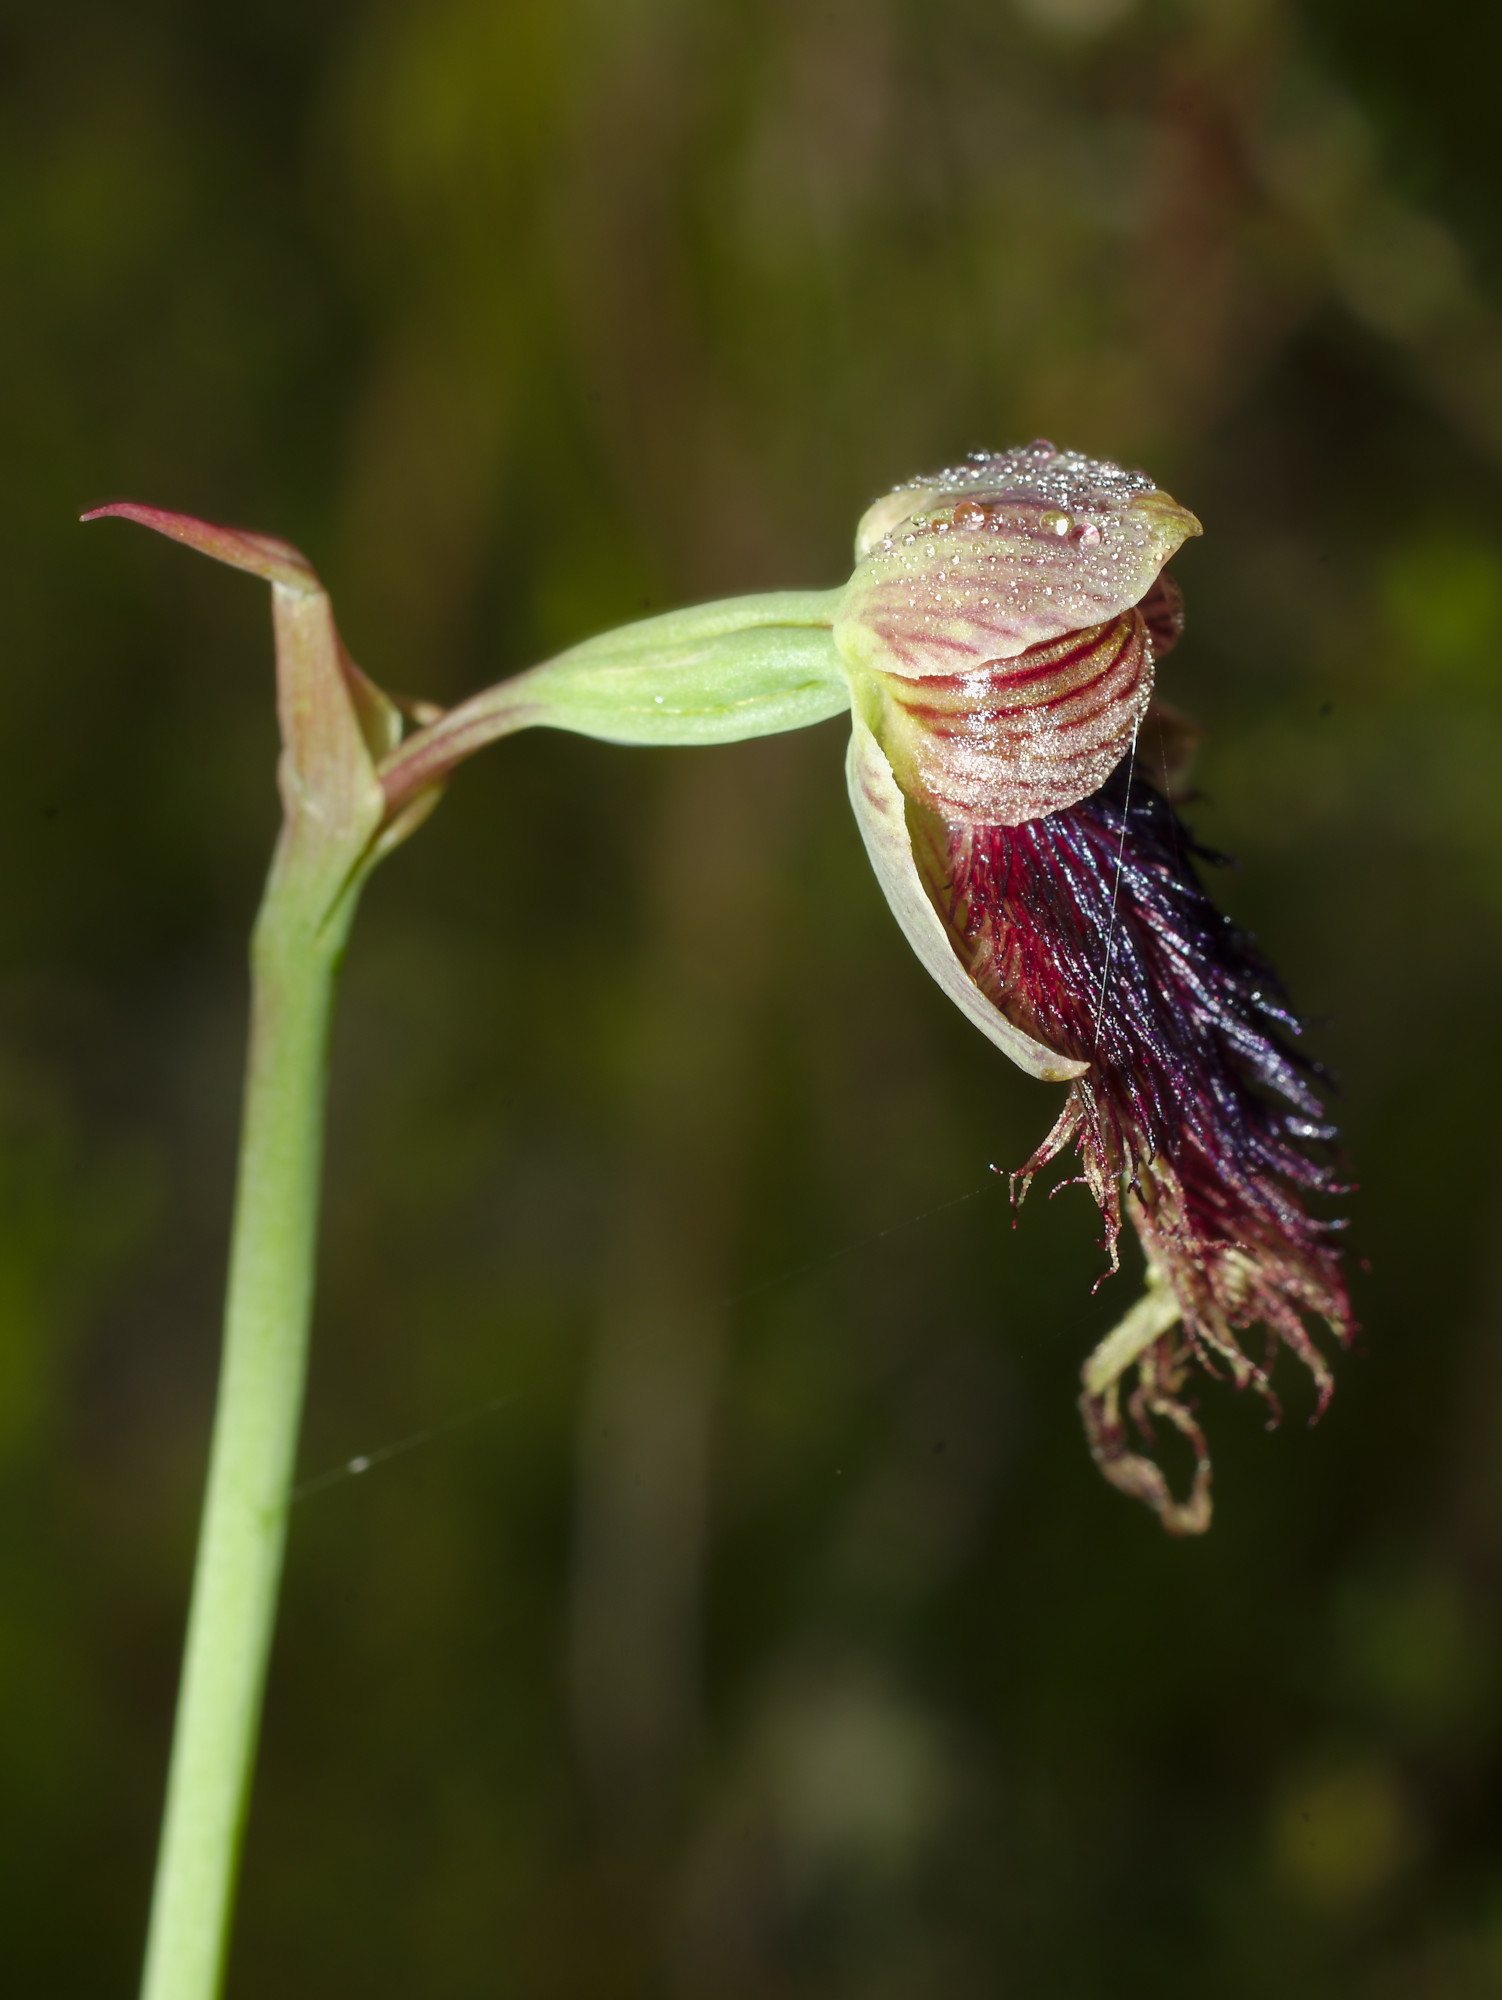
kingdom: Plantae
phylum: Tracheophyta
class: Liliopsida
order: Asparagales
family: Orchidaceae
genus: Calochilus
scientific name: Calochilus robertsonii
